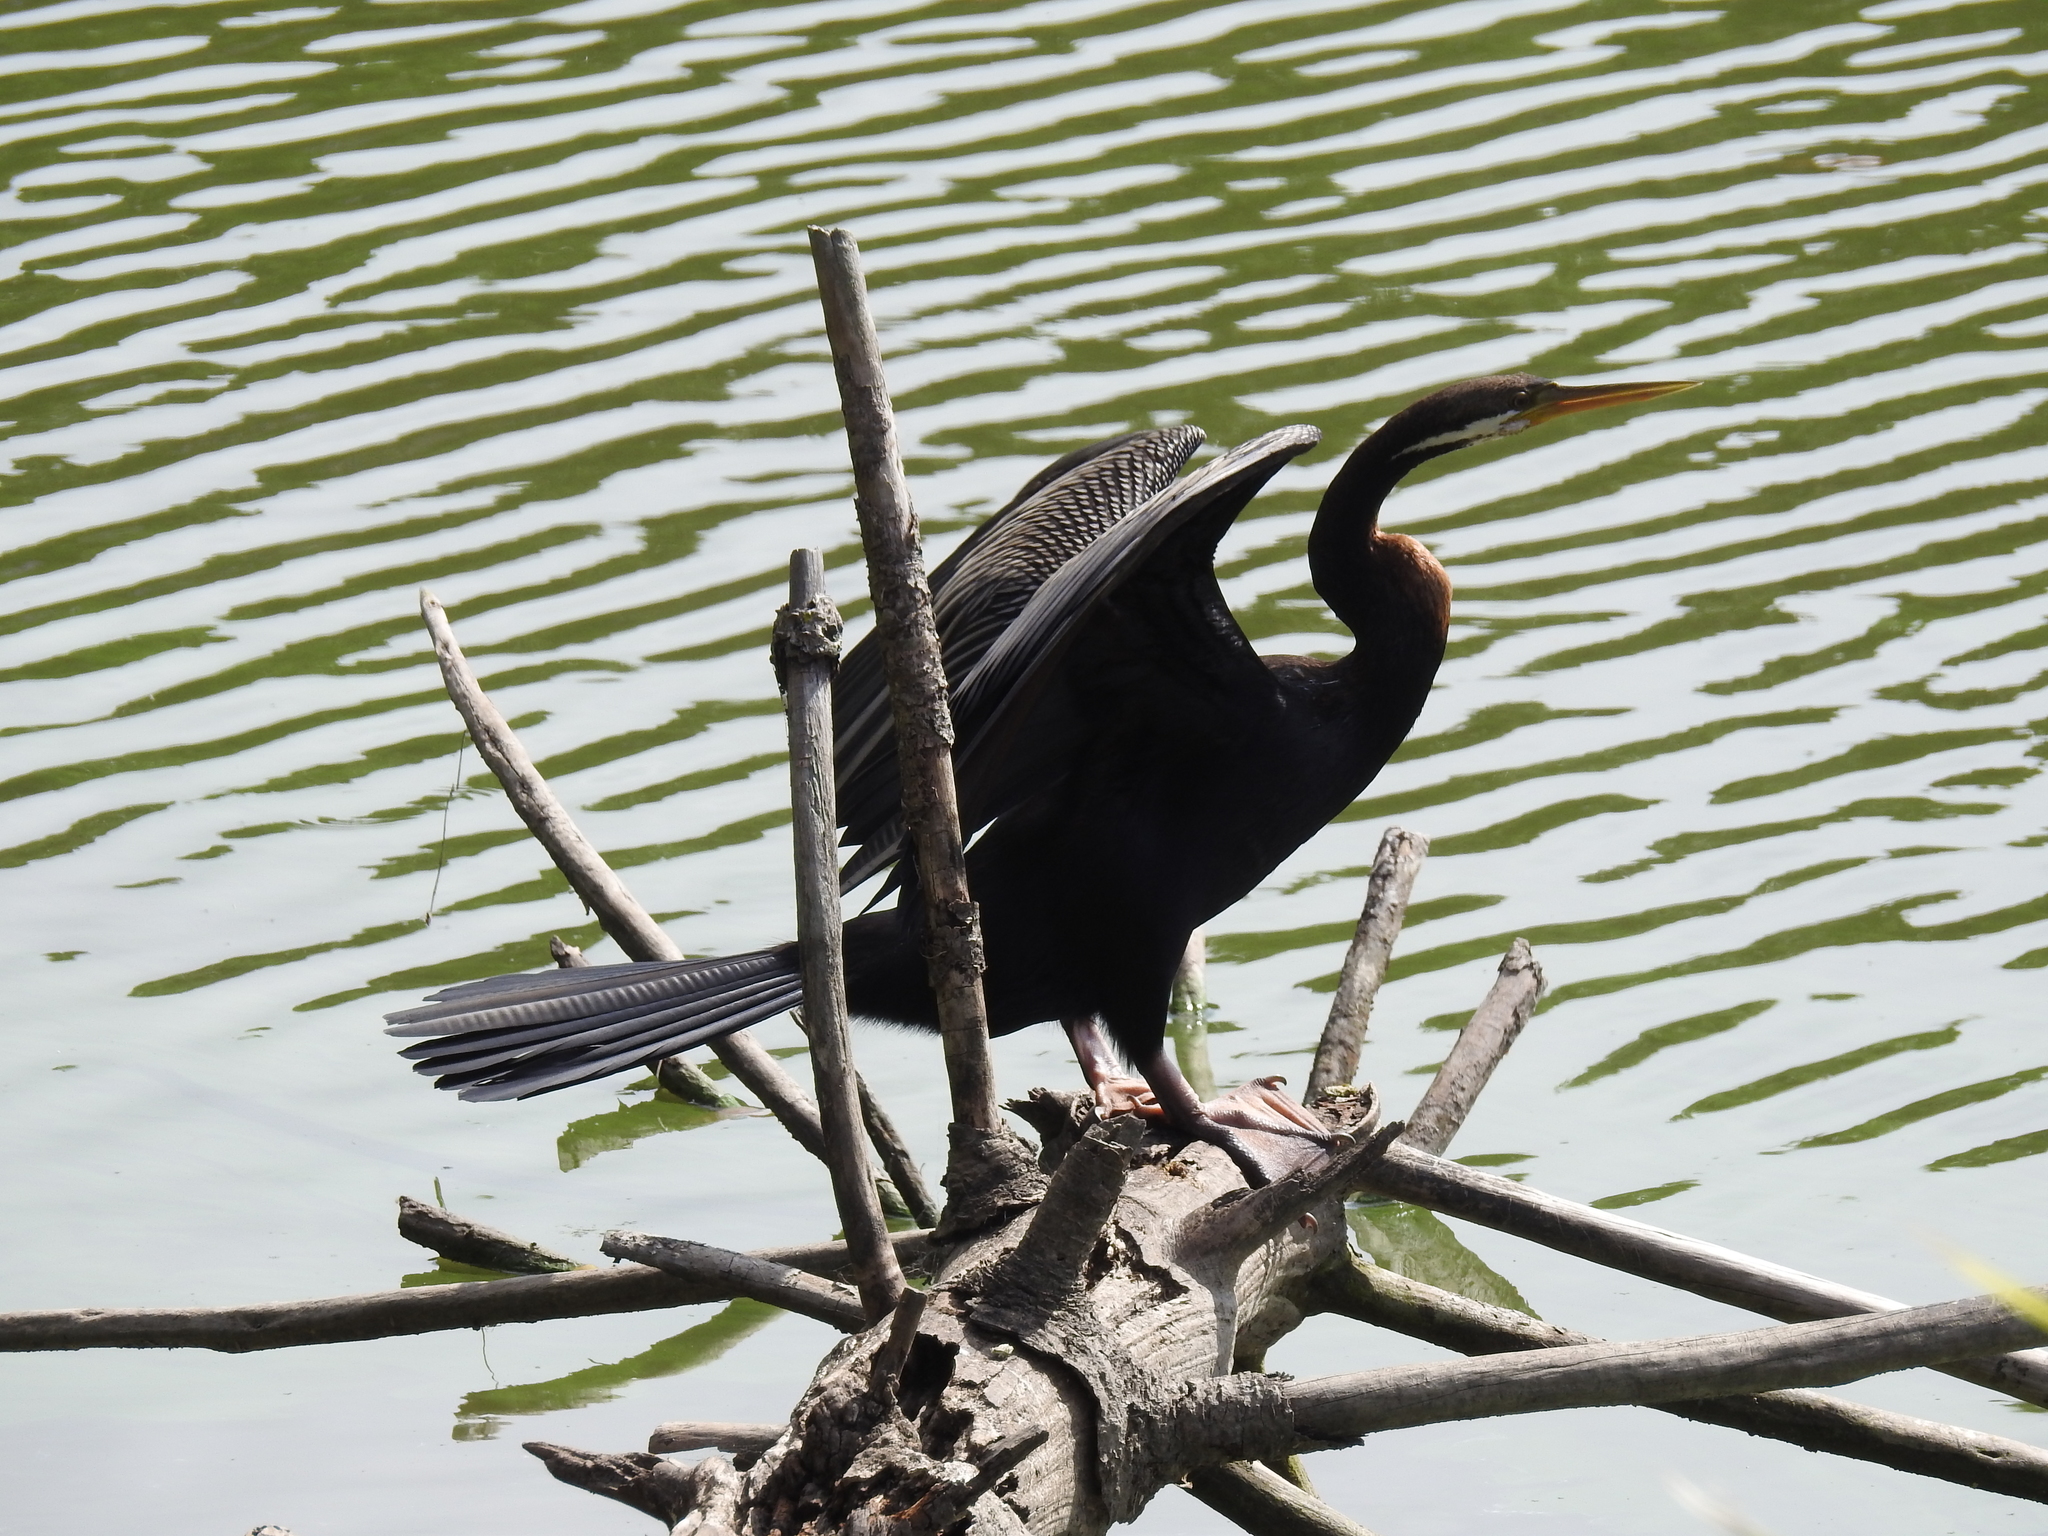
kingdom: Animalia
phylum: Chordata
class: Aves
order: Suliformes
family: Anhingidae
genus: Anhinga
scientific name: Anhinga novaehollandiae
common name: Australasian darter
